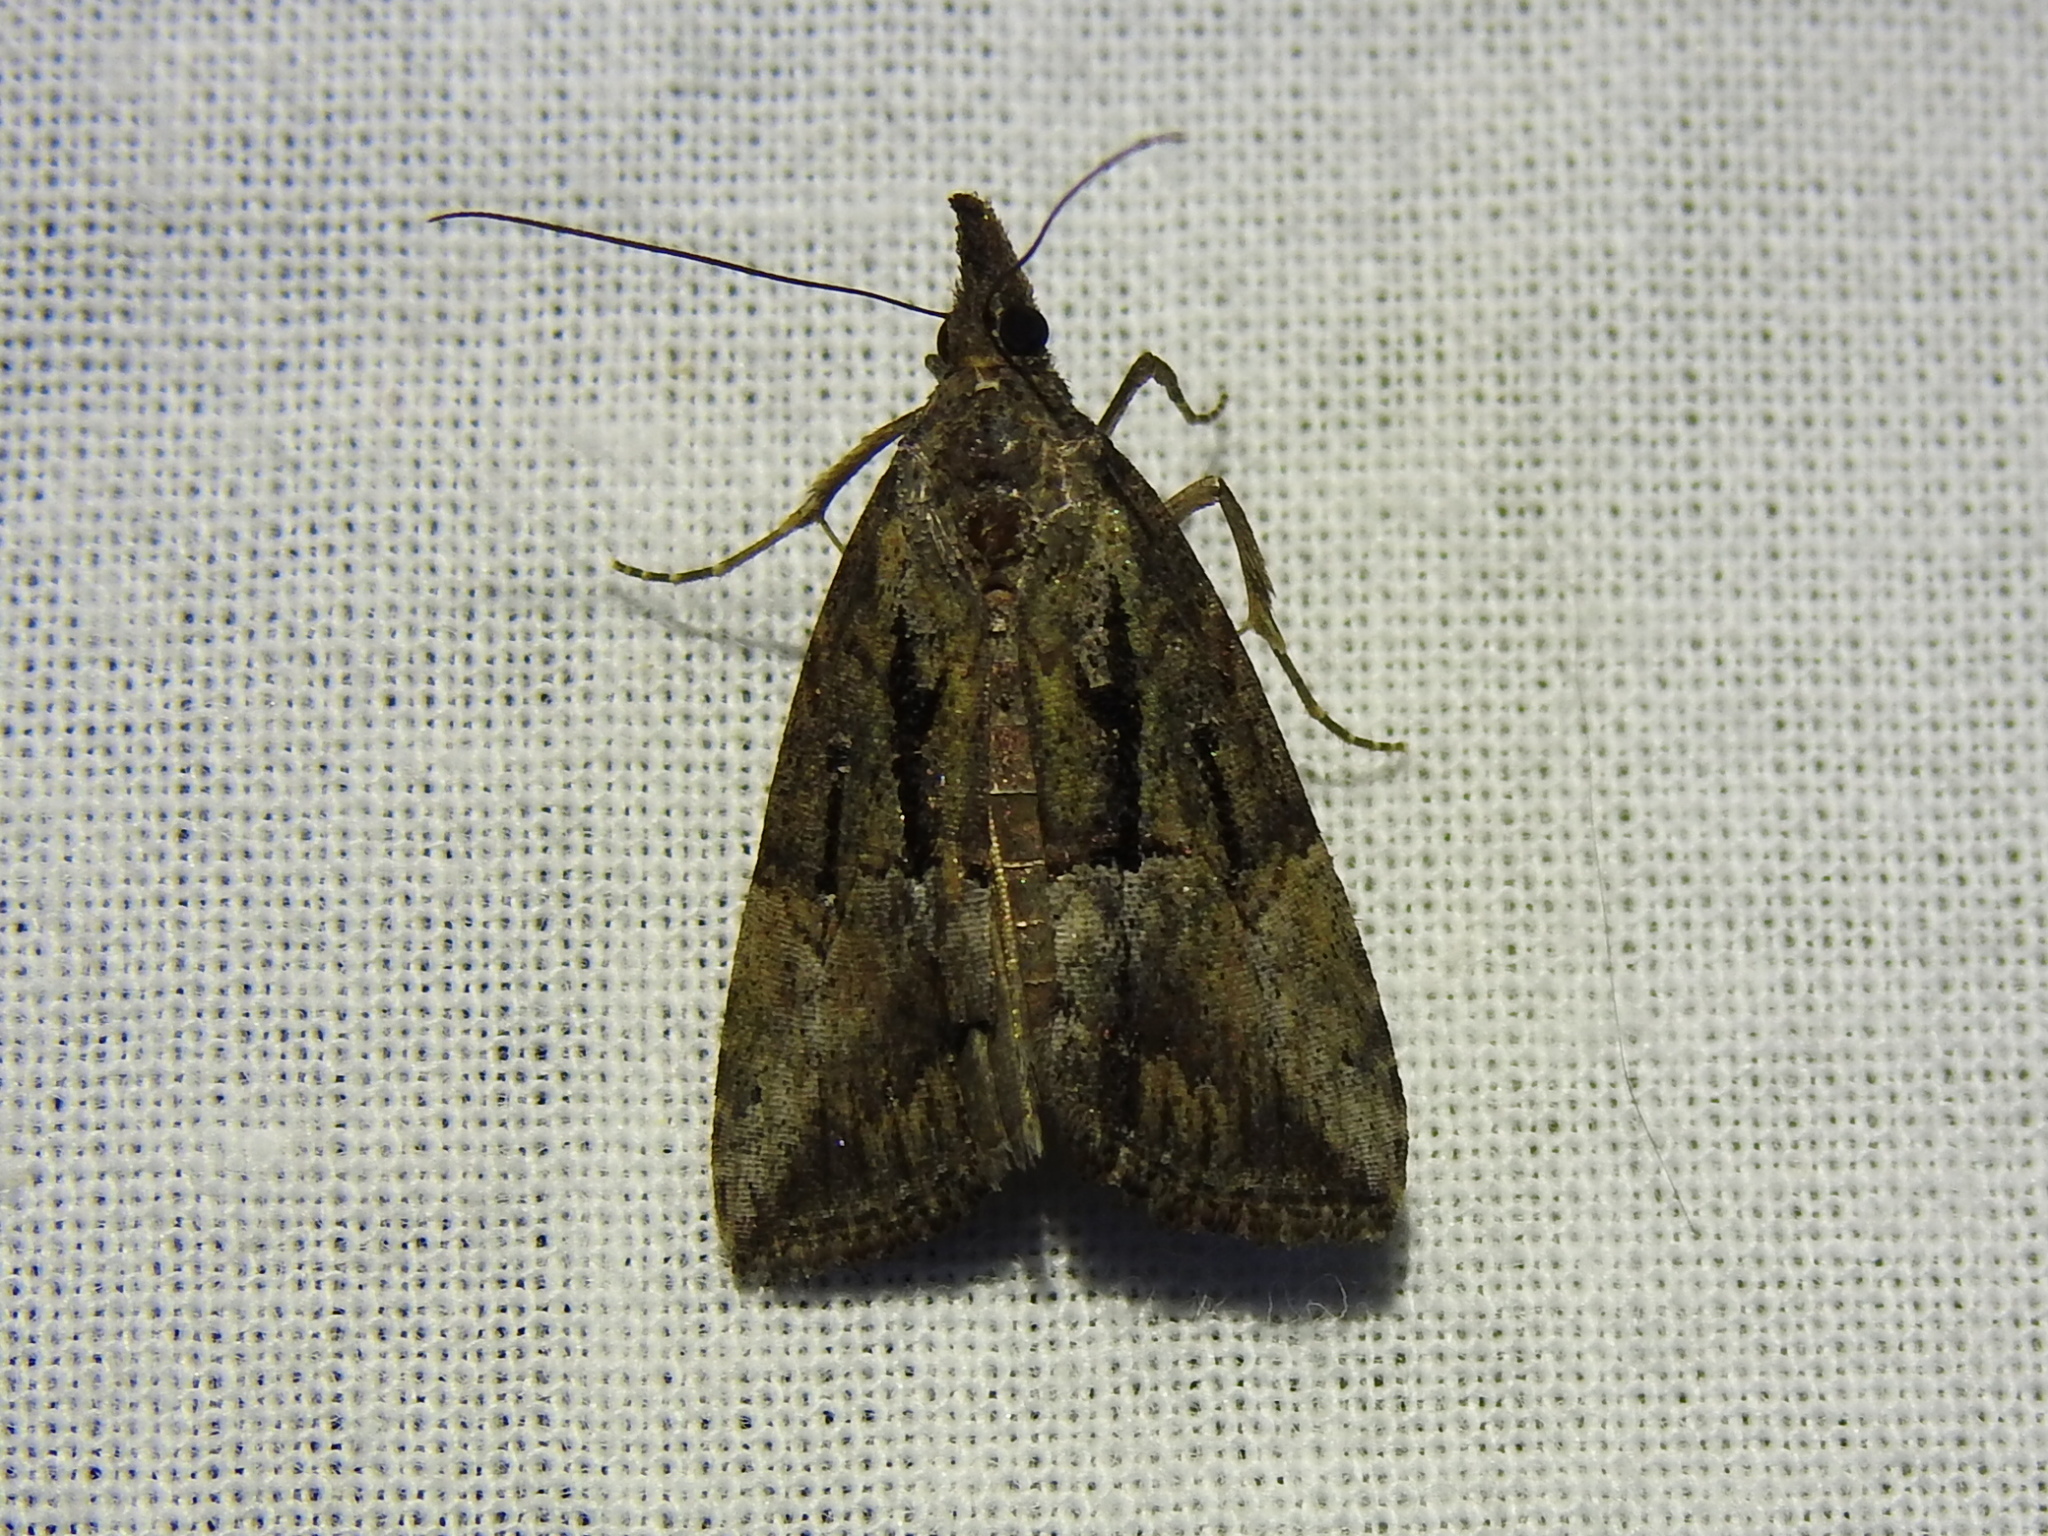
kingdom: Animalia
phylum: Arthropoda
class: Insecta
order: Lepidoptera
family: Erebidae
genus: Hypena
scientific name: Hypena scabra
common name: Green cloverworm
